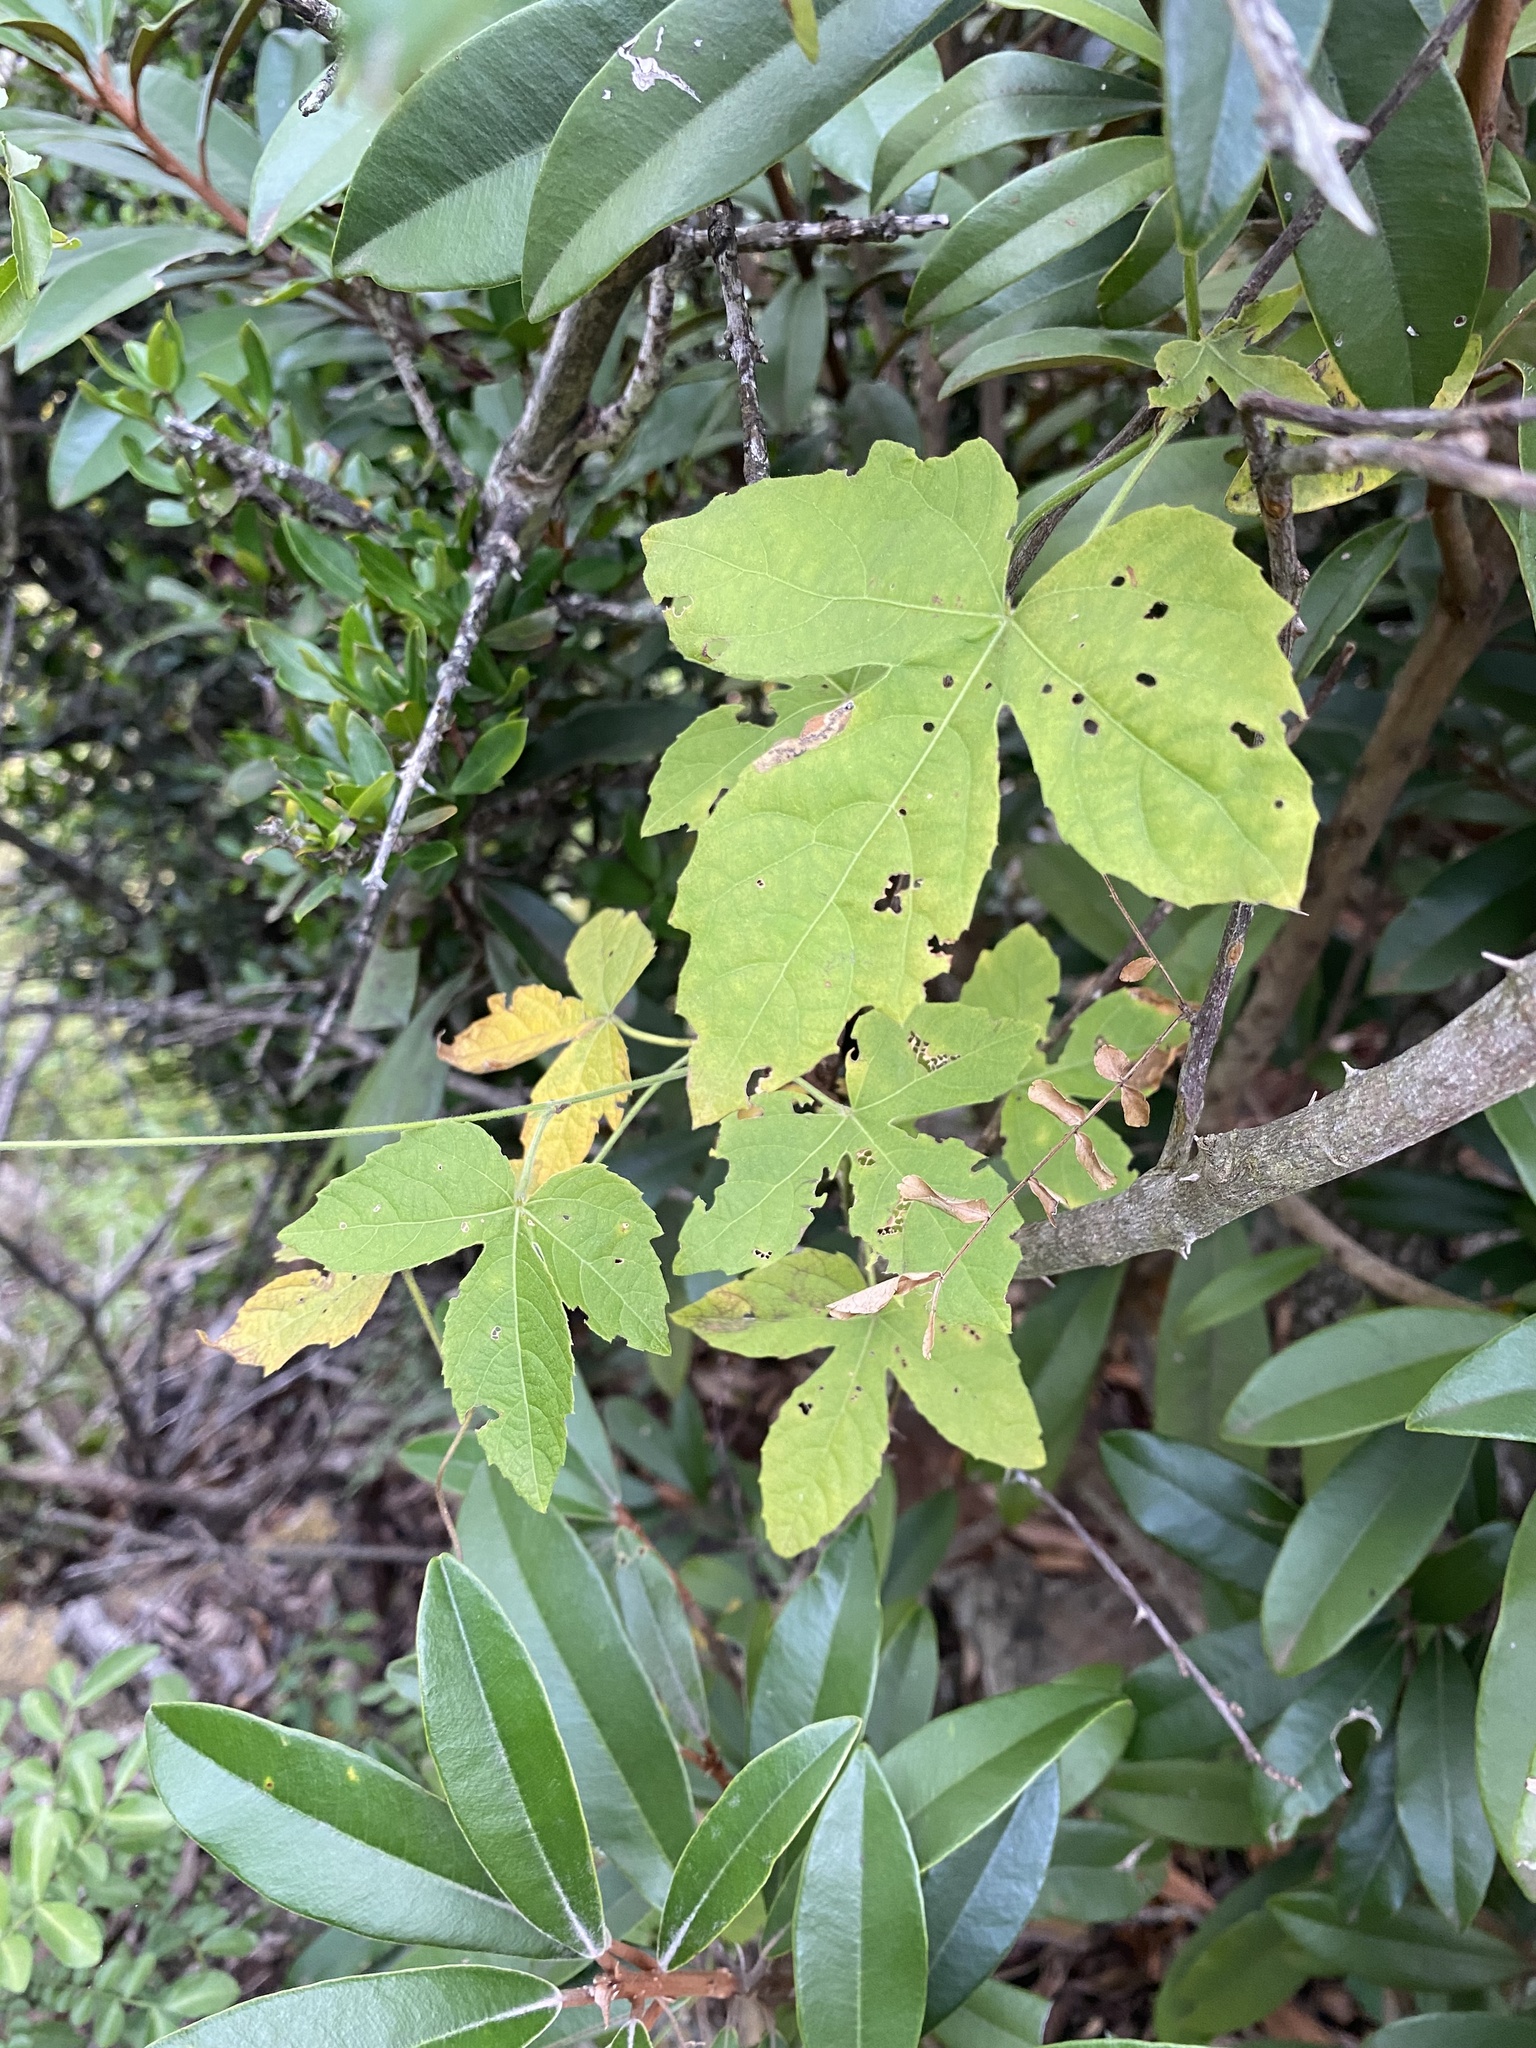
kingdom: Plantae
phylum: Tracheophyta
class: Magnoliopsida
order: Malpighiales
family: Euphorbiaceae
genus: Dalechampia
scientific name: Dalechampia capensis
